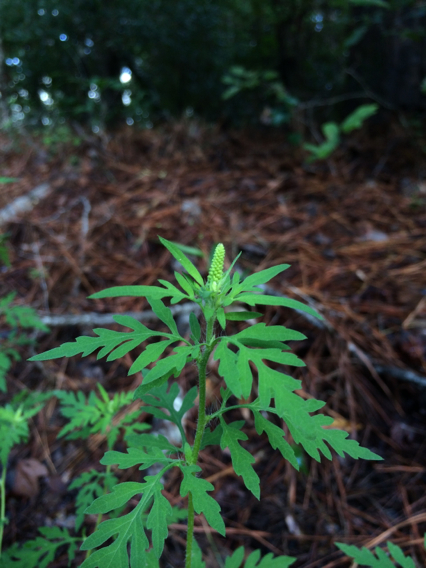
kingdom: Plantae
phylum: Tracheophyta
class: Magnoliopsida
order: Asterales
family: Asteraceae
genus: Ambrosia
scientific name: Ambrosia artemisiifolia
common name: Annual ragweed
